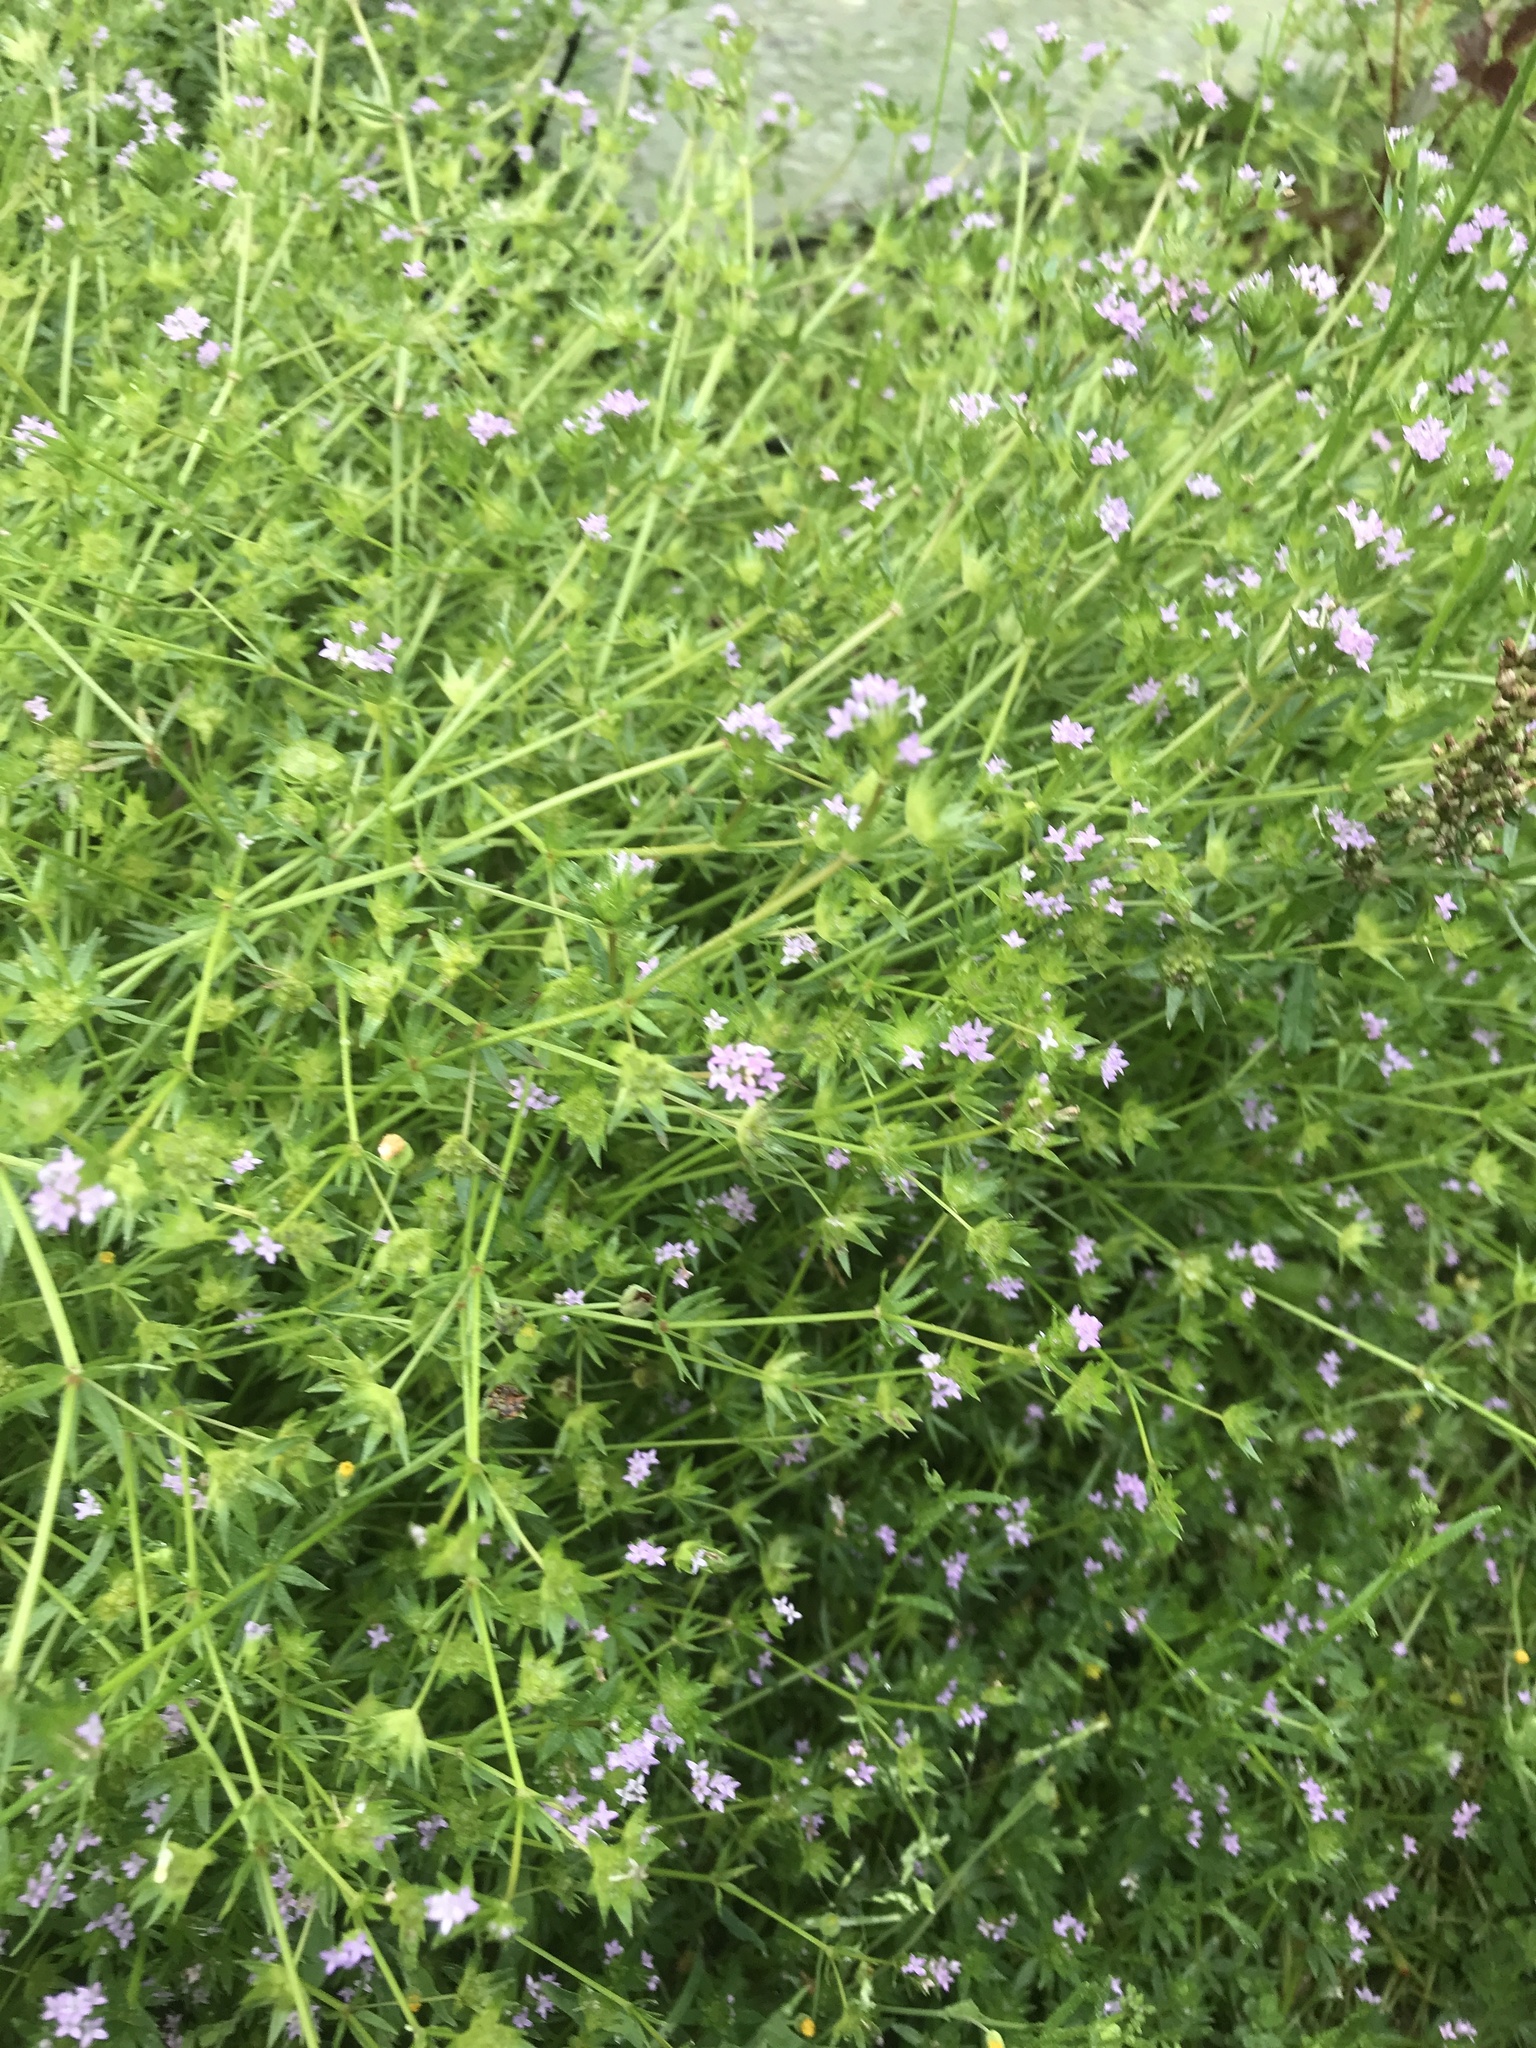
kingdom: Plantae
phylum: Tracheophyta
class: Magnoliopsida
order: Gentianales
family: Rubiaceae
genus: Sherardia
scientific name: Sherardia arvensis
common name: Field madder
